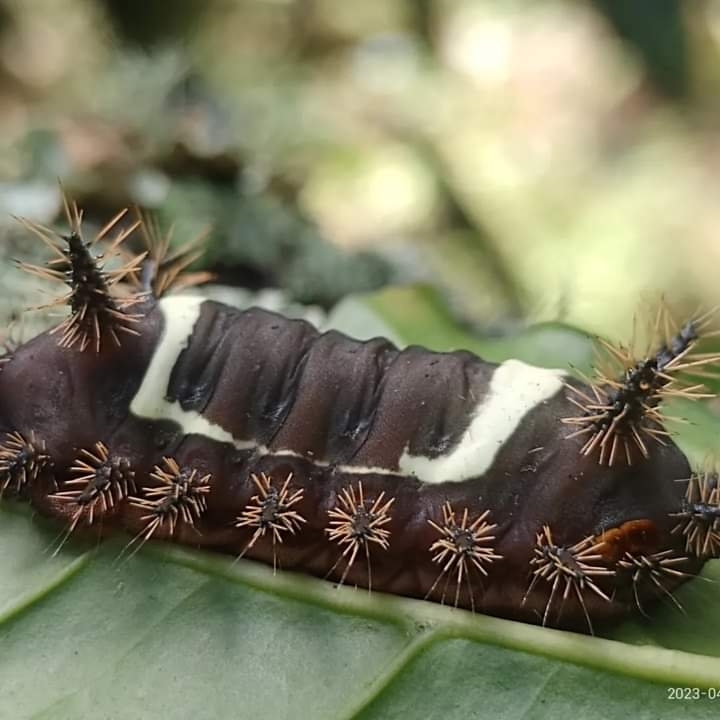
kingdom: Animalia
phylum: Arthropoda
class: Insecta
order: Lepidoptera
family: Limacodidae
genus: Sibine
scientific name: Sibine nesea
